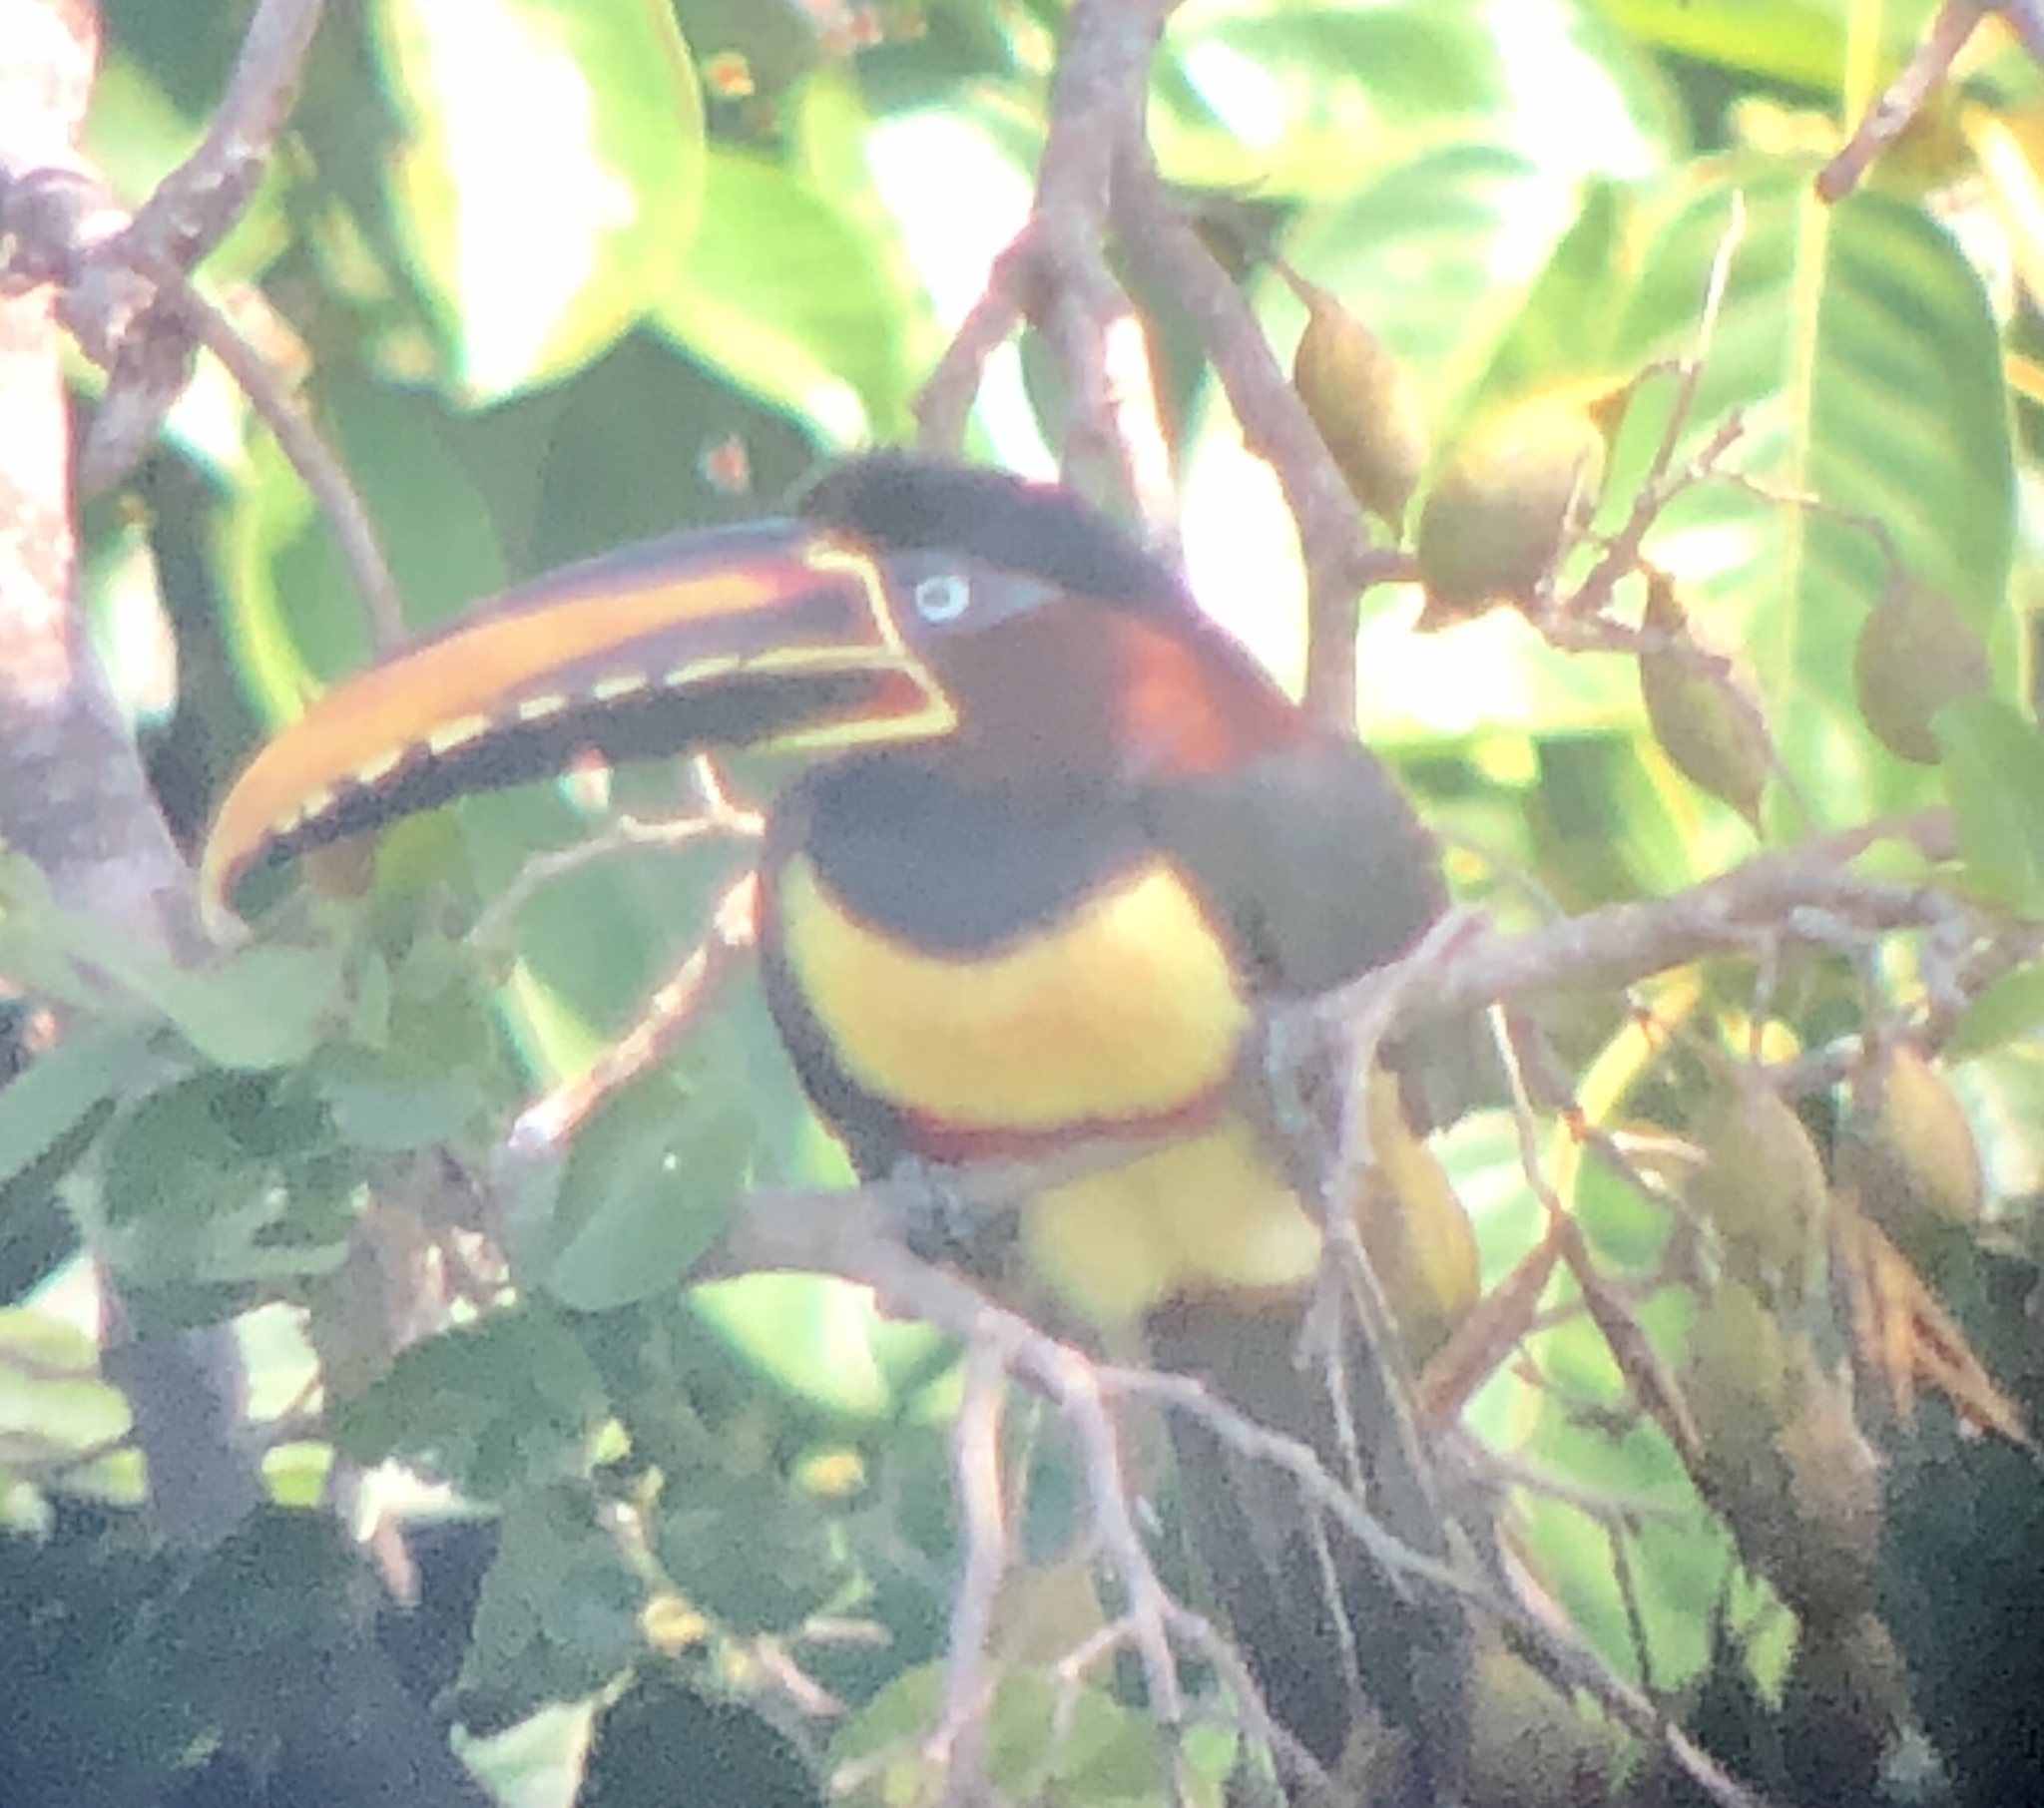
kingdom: Animalia
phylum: Chordata
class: Aves
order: Piciformes
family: Ramphastidae
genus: Pteroglossus
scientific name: Pteroglossus castanotis
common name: Chestnut-eared aracari
